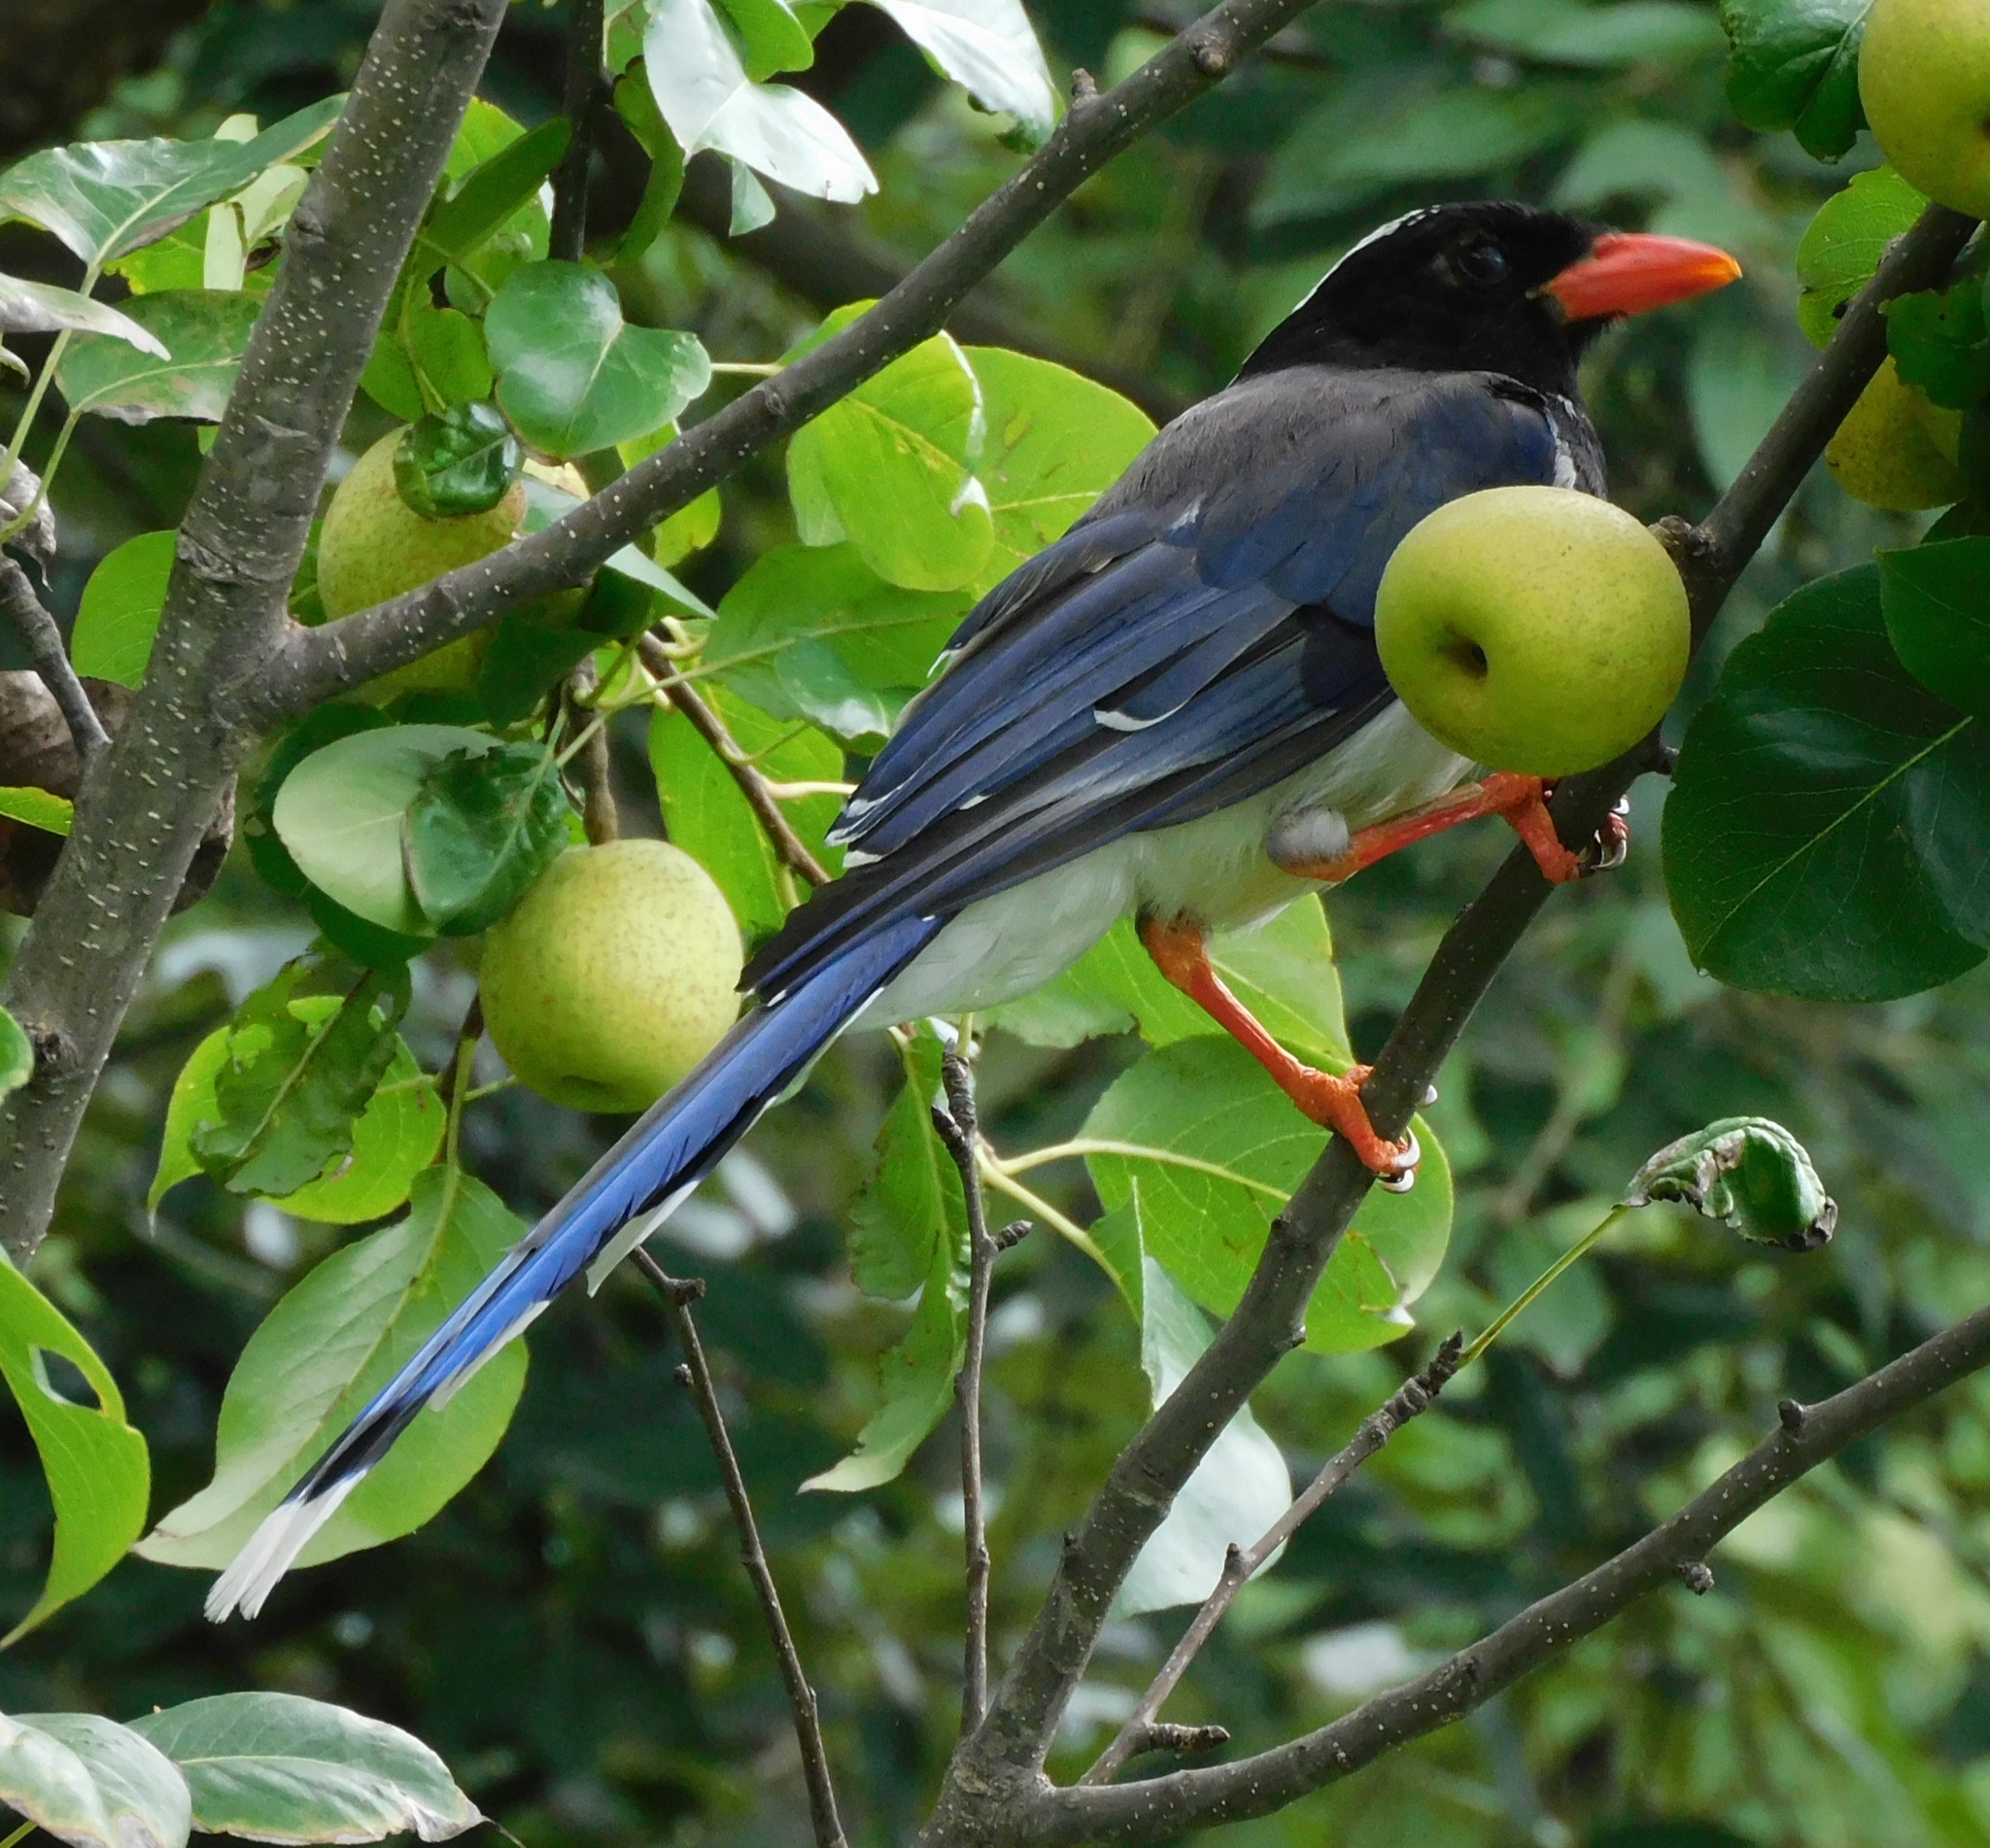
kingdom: Animalia
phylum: Chordata
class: Aves
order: Passeriformes
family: Corvidae
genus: Urocissa
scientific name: Urocissa erythroryncha
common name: Red-billed blue magpie
